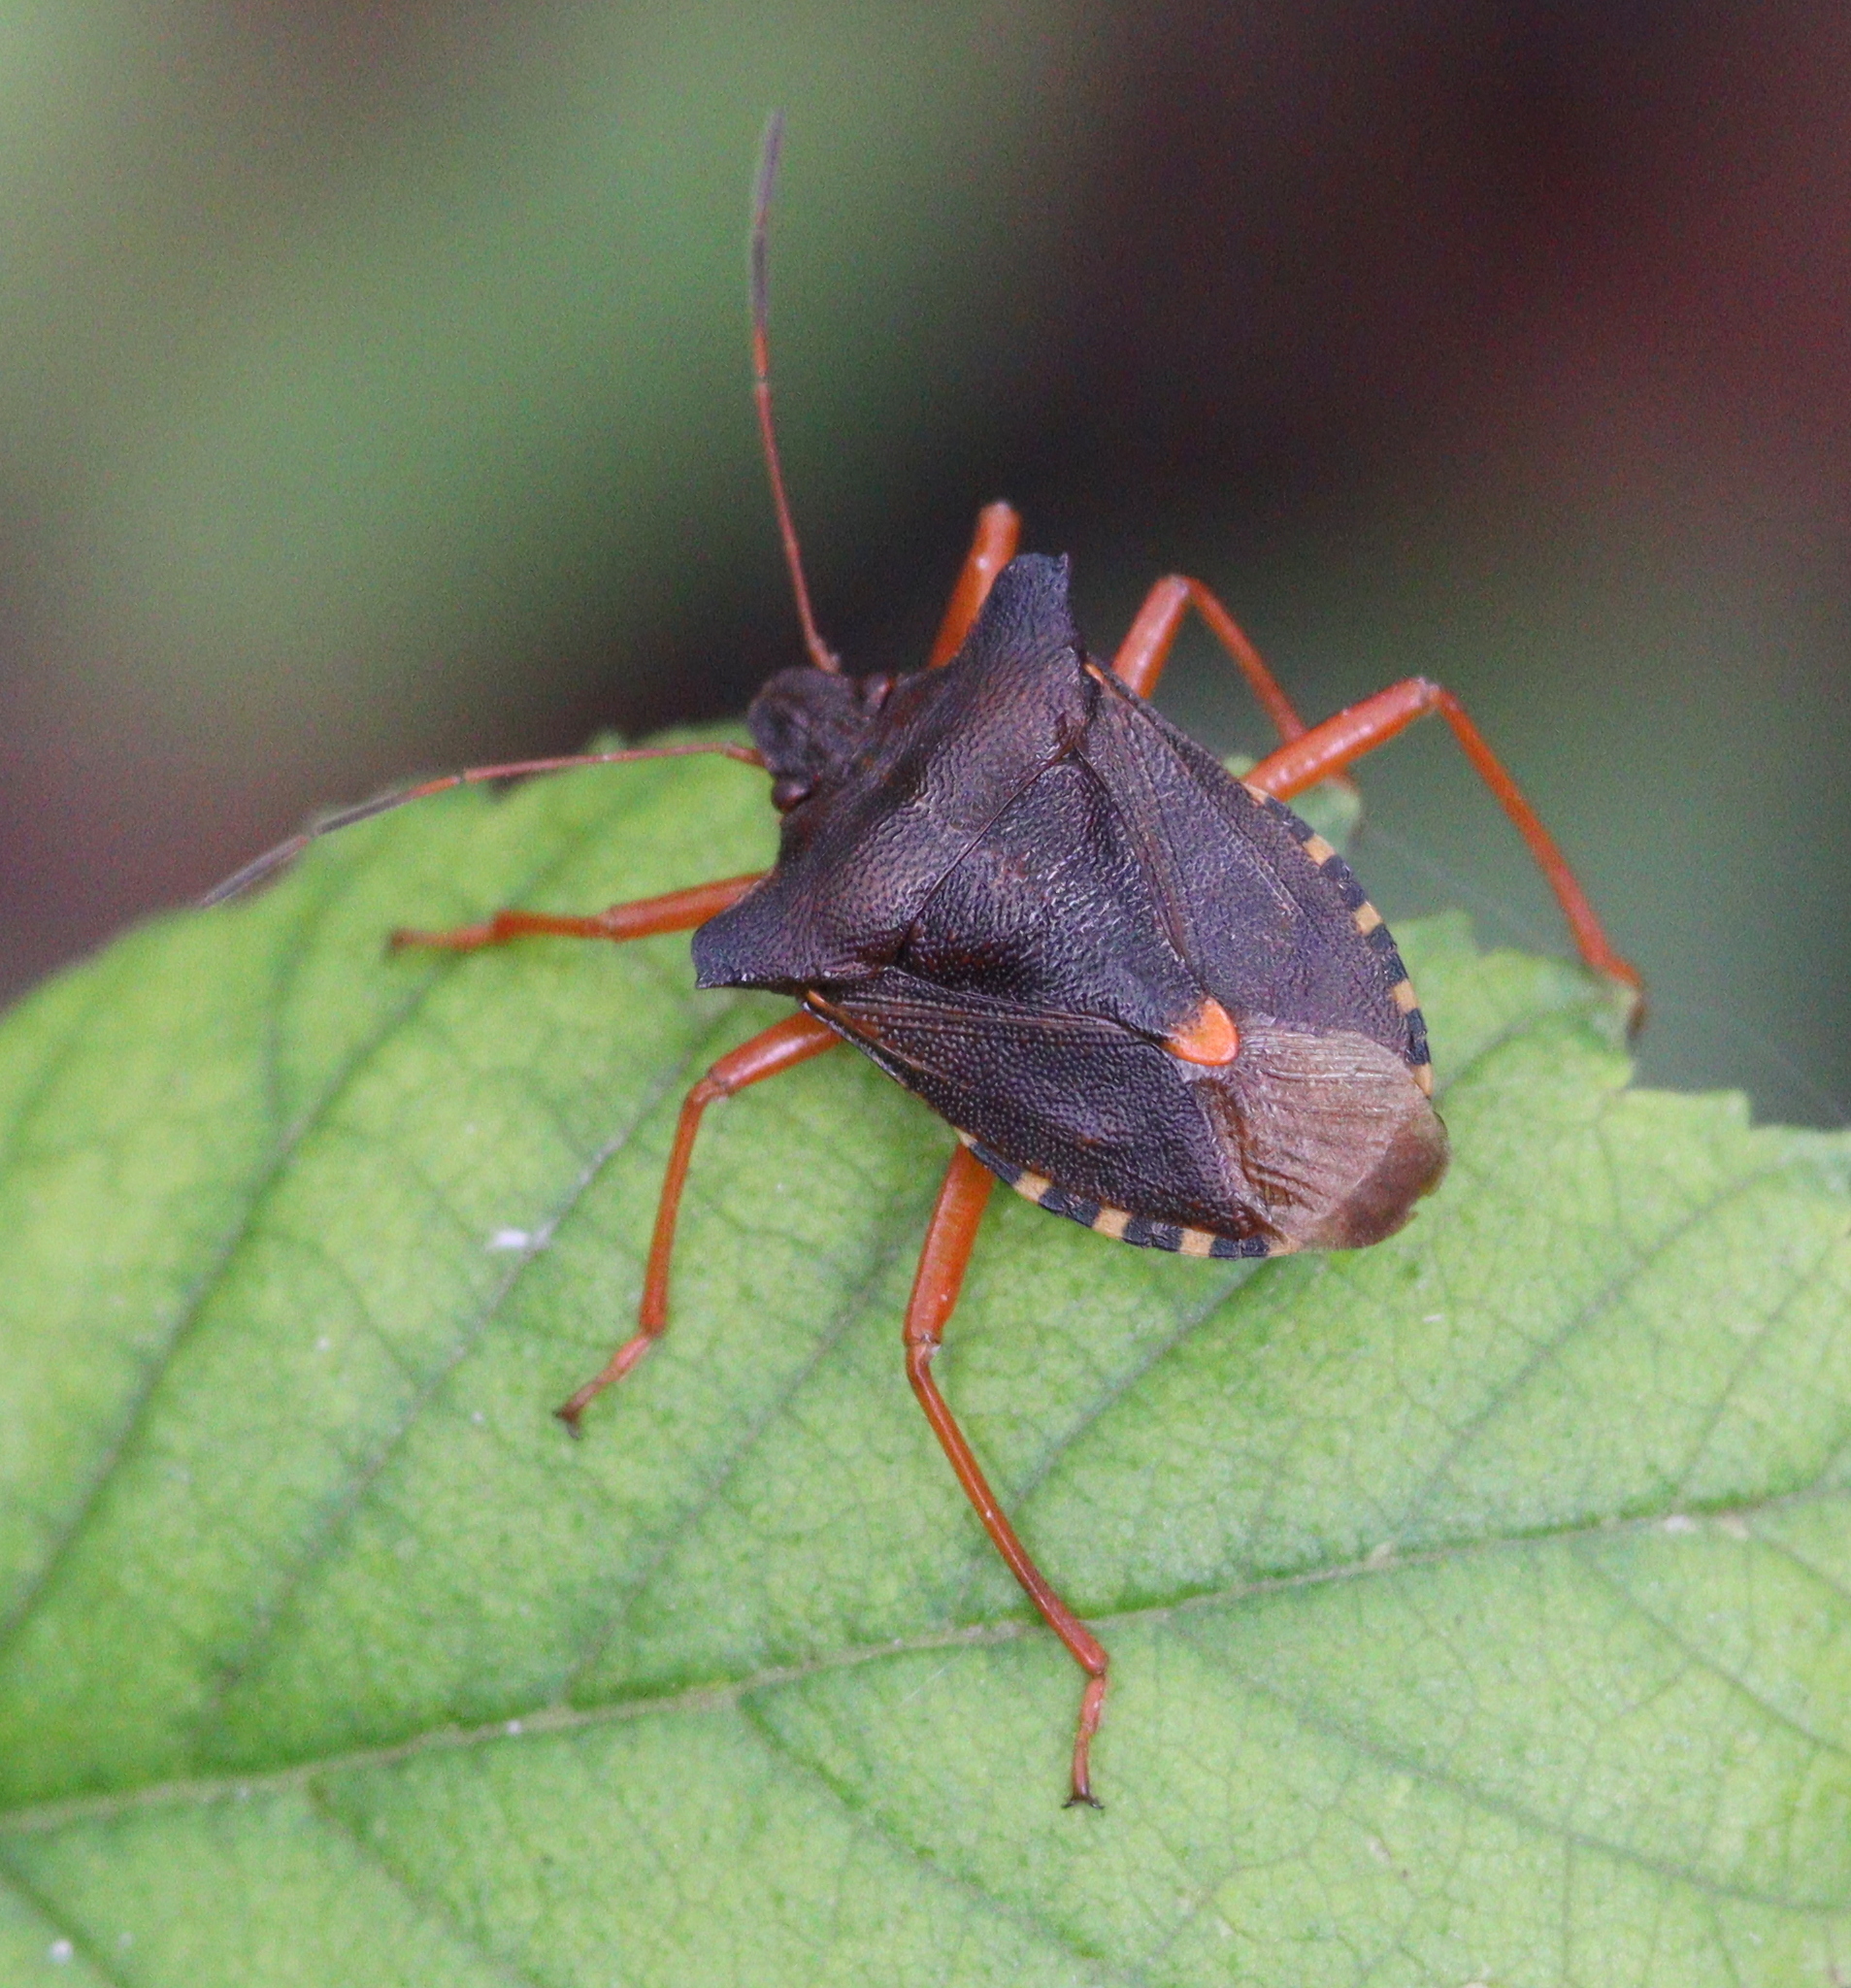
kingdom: Animalia
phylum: Arthropoda
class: Insecta
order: Hemiptera
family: Pentatomidae
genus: Pentatoma
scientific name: Pentatoma rufipes
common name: Forest bug
